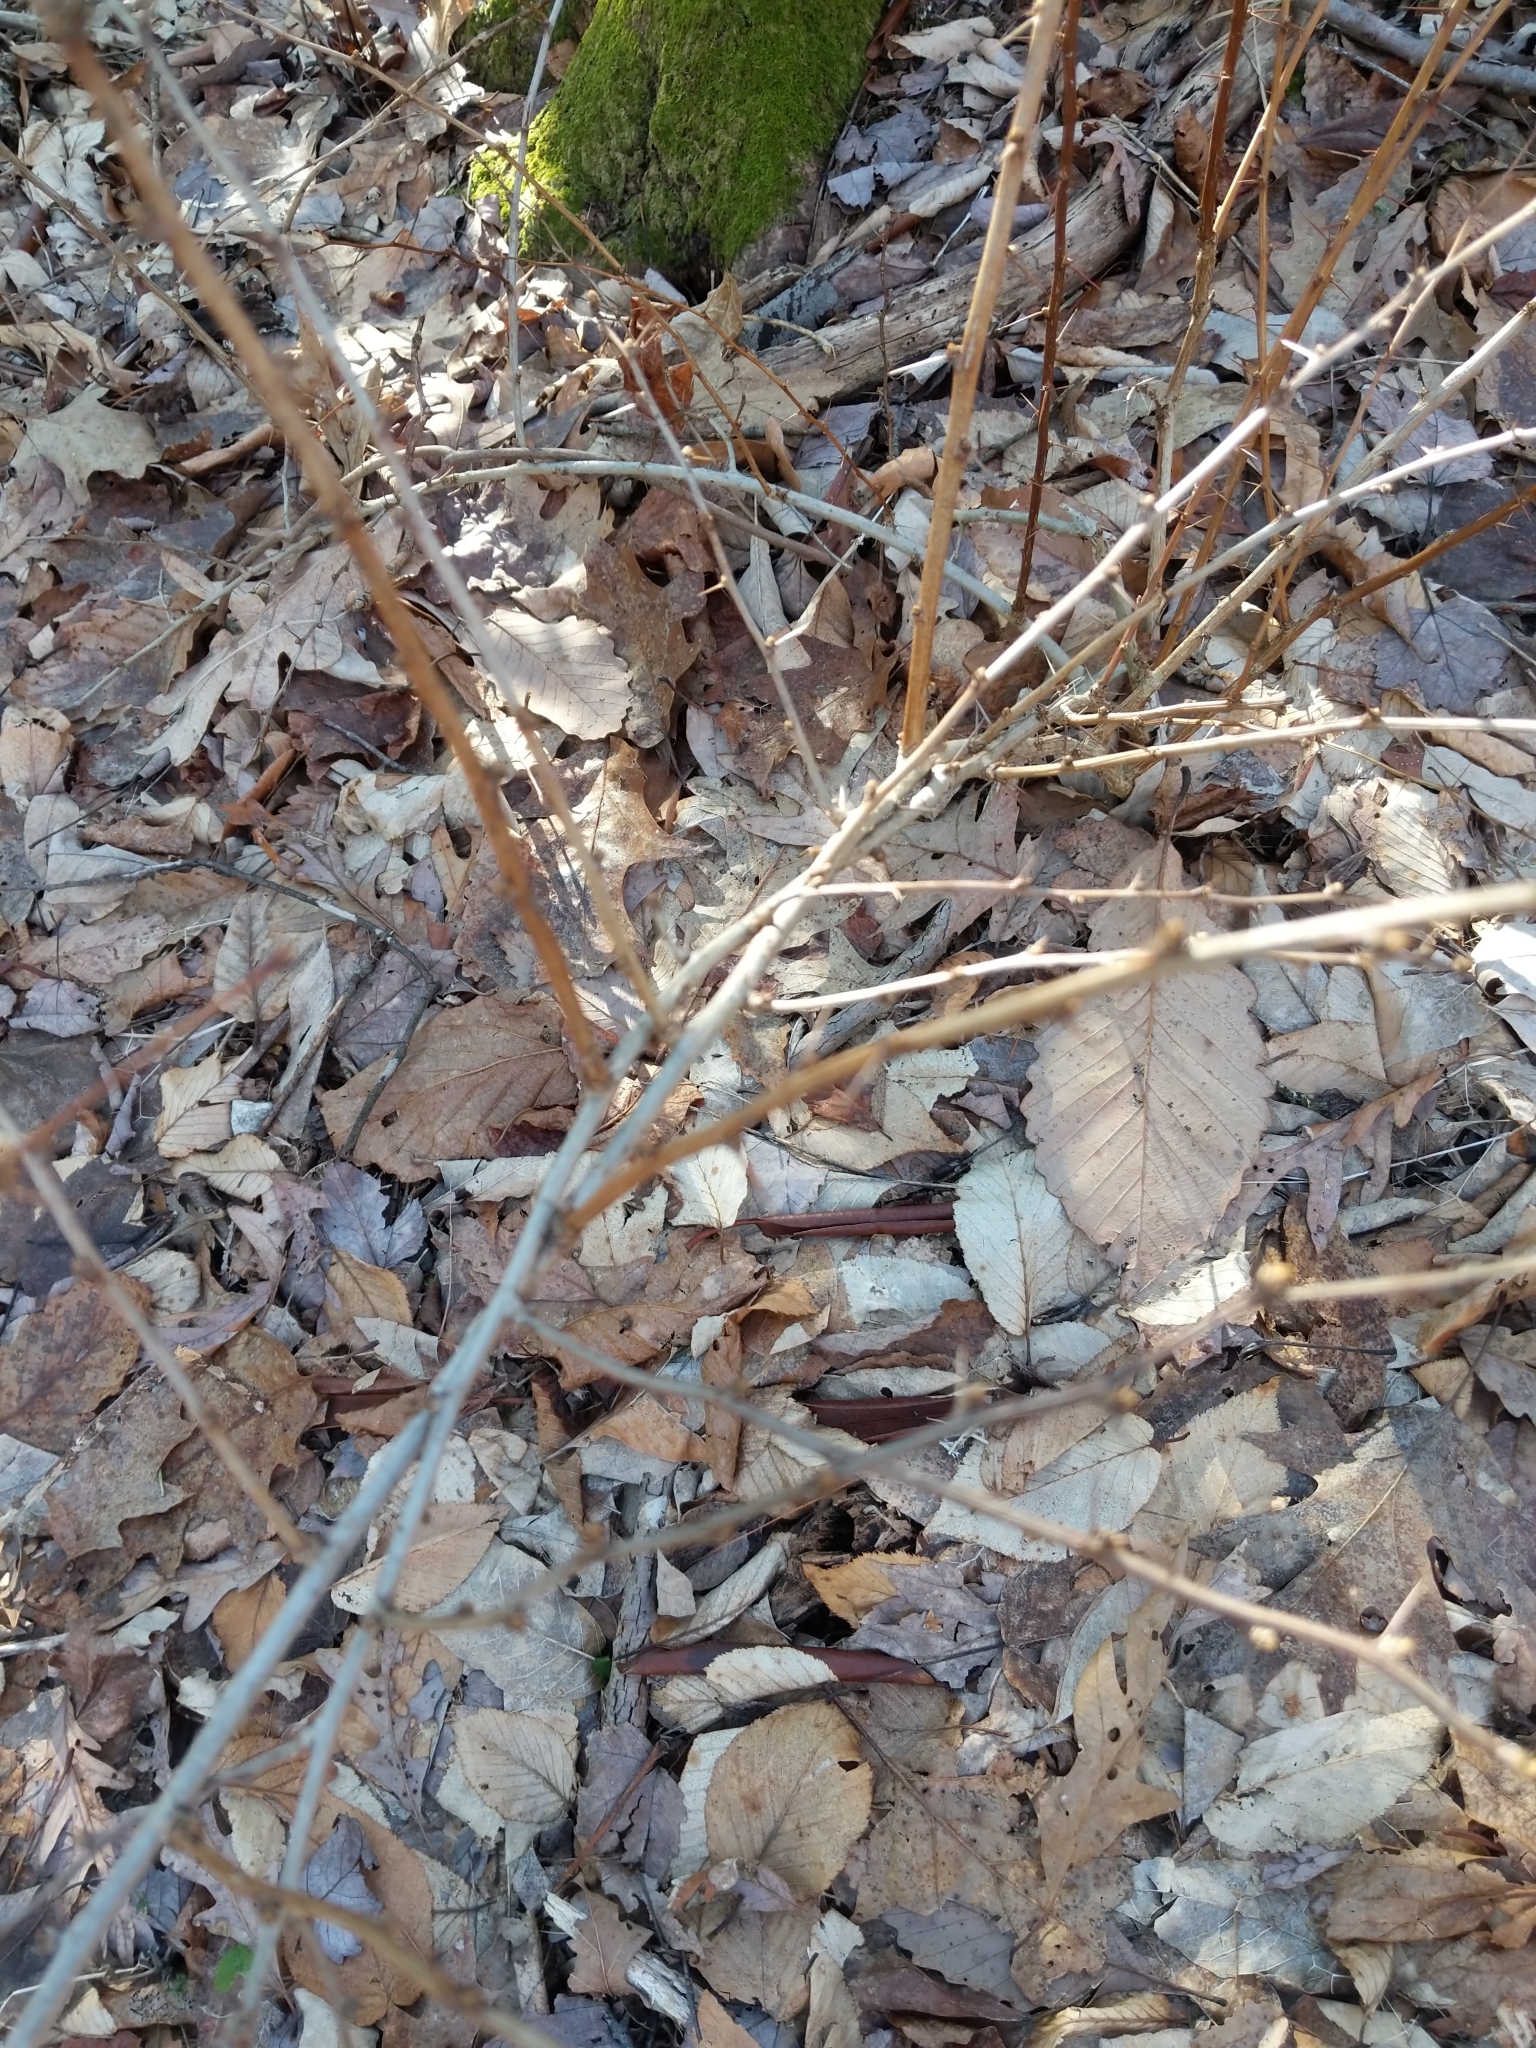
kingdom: Plantae
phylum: Tracheophyta
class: Magnoliopsida
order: Ranunculales
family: Berberidaceae
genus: Berberis
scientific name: Berberis thunbergii
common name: Japanese barberry
